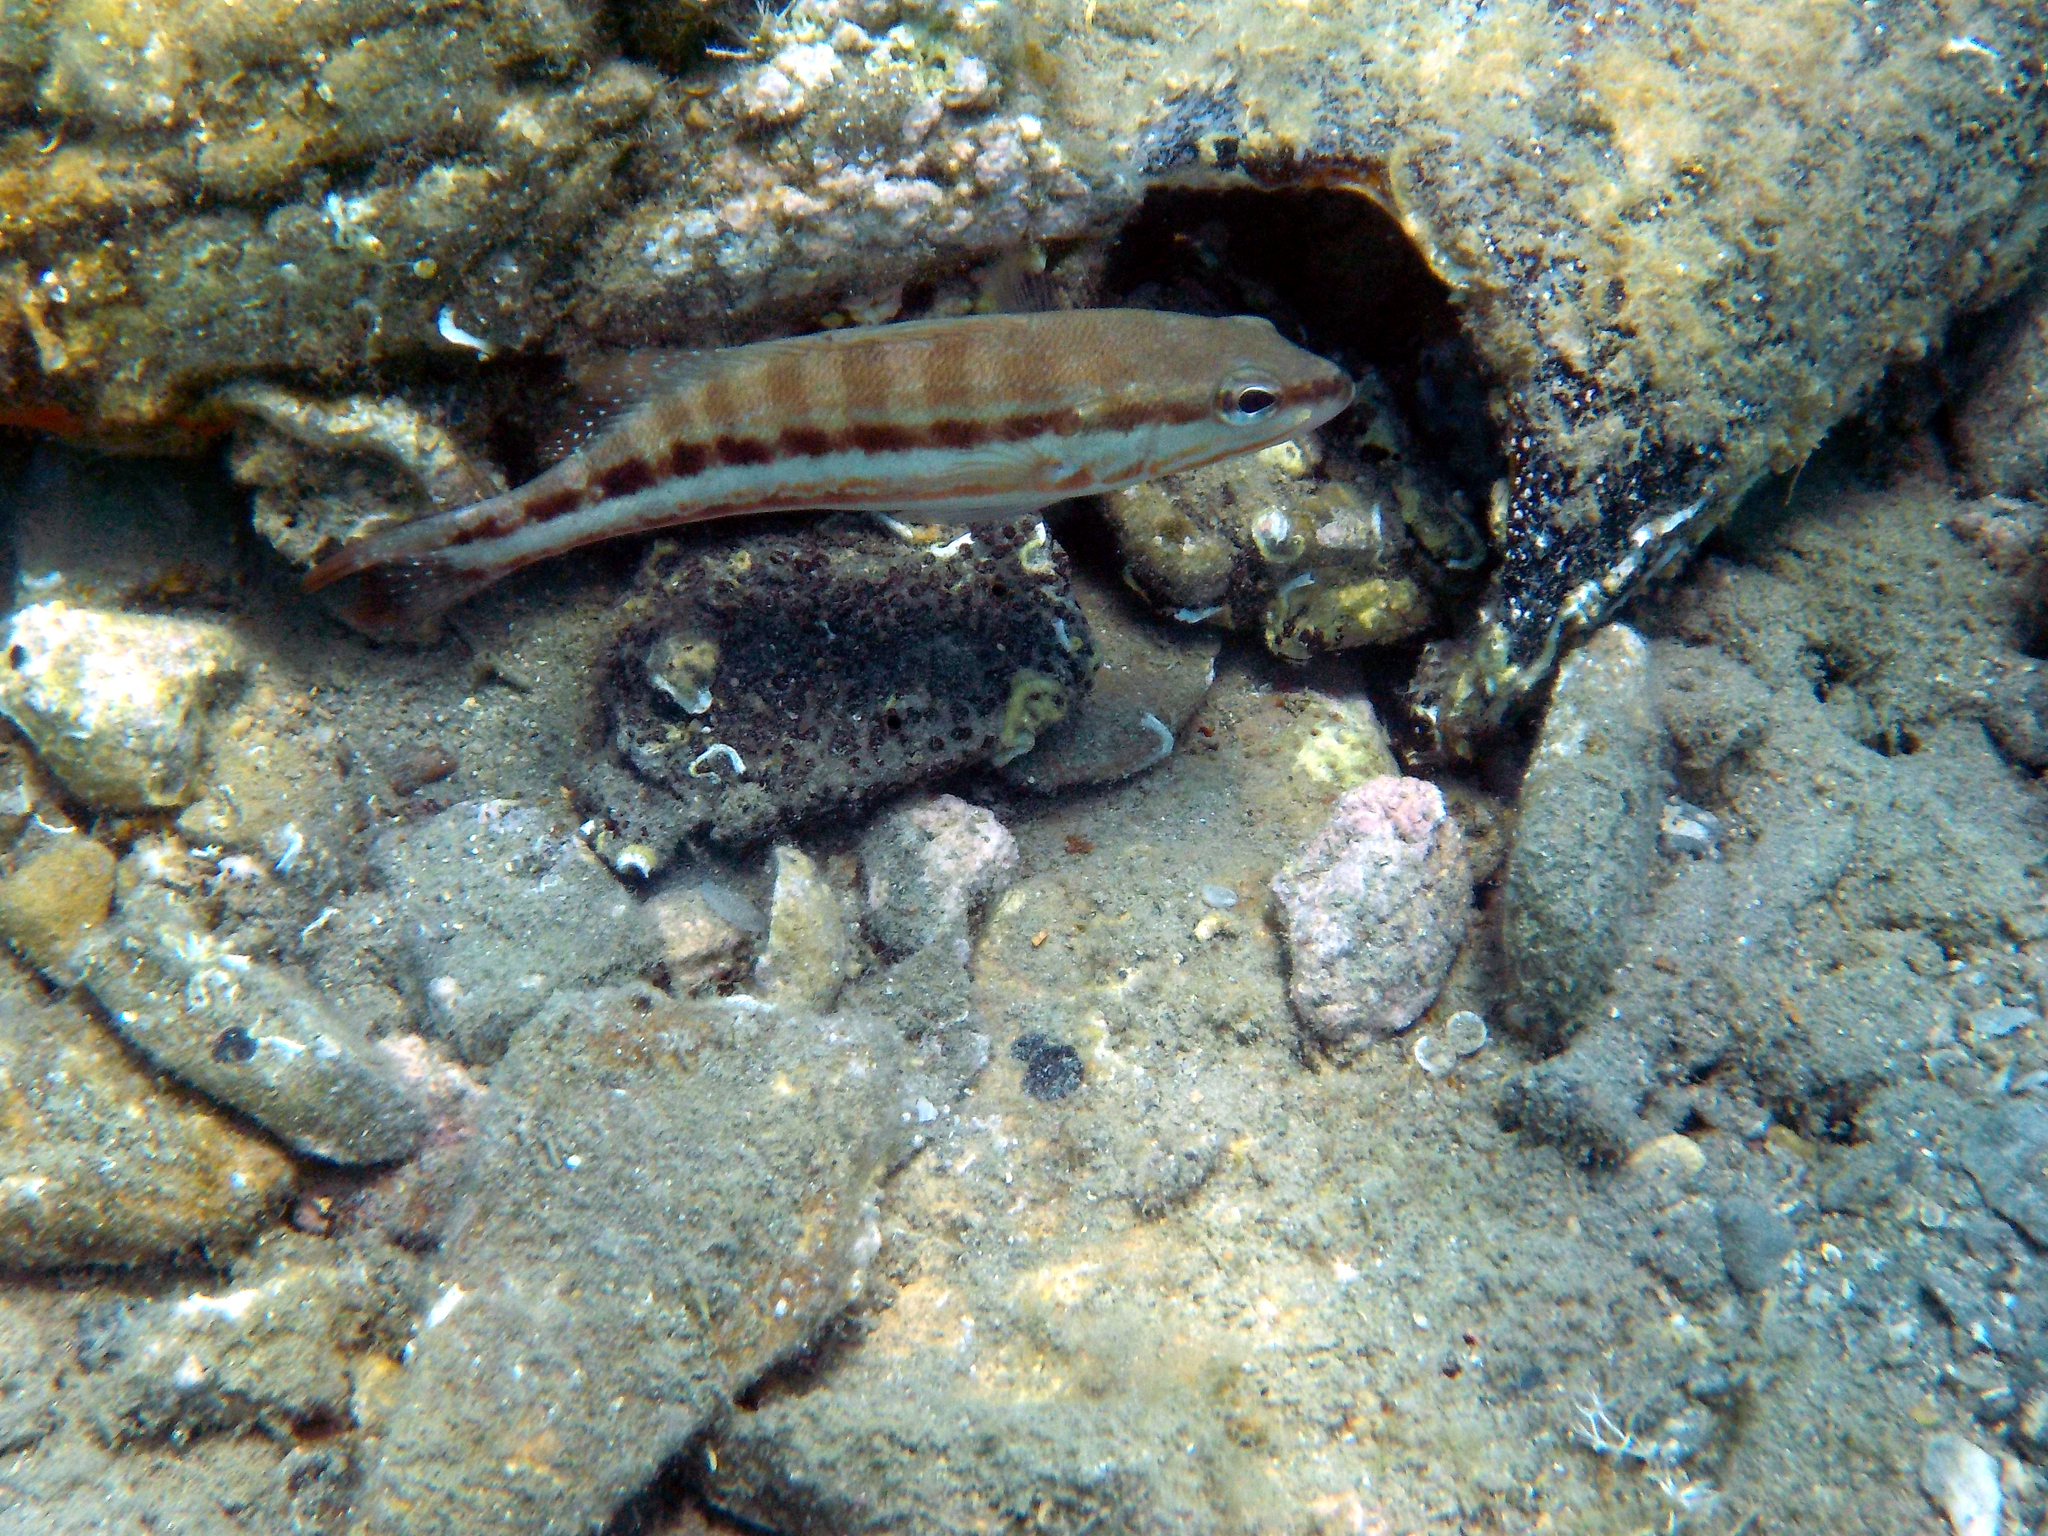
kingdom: Animalia
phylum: Chordata
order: Perciformes
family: Serranidae
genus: Serranus
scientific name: Serranus cabrilla
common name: Comber
